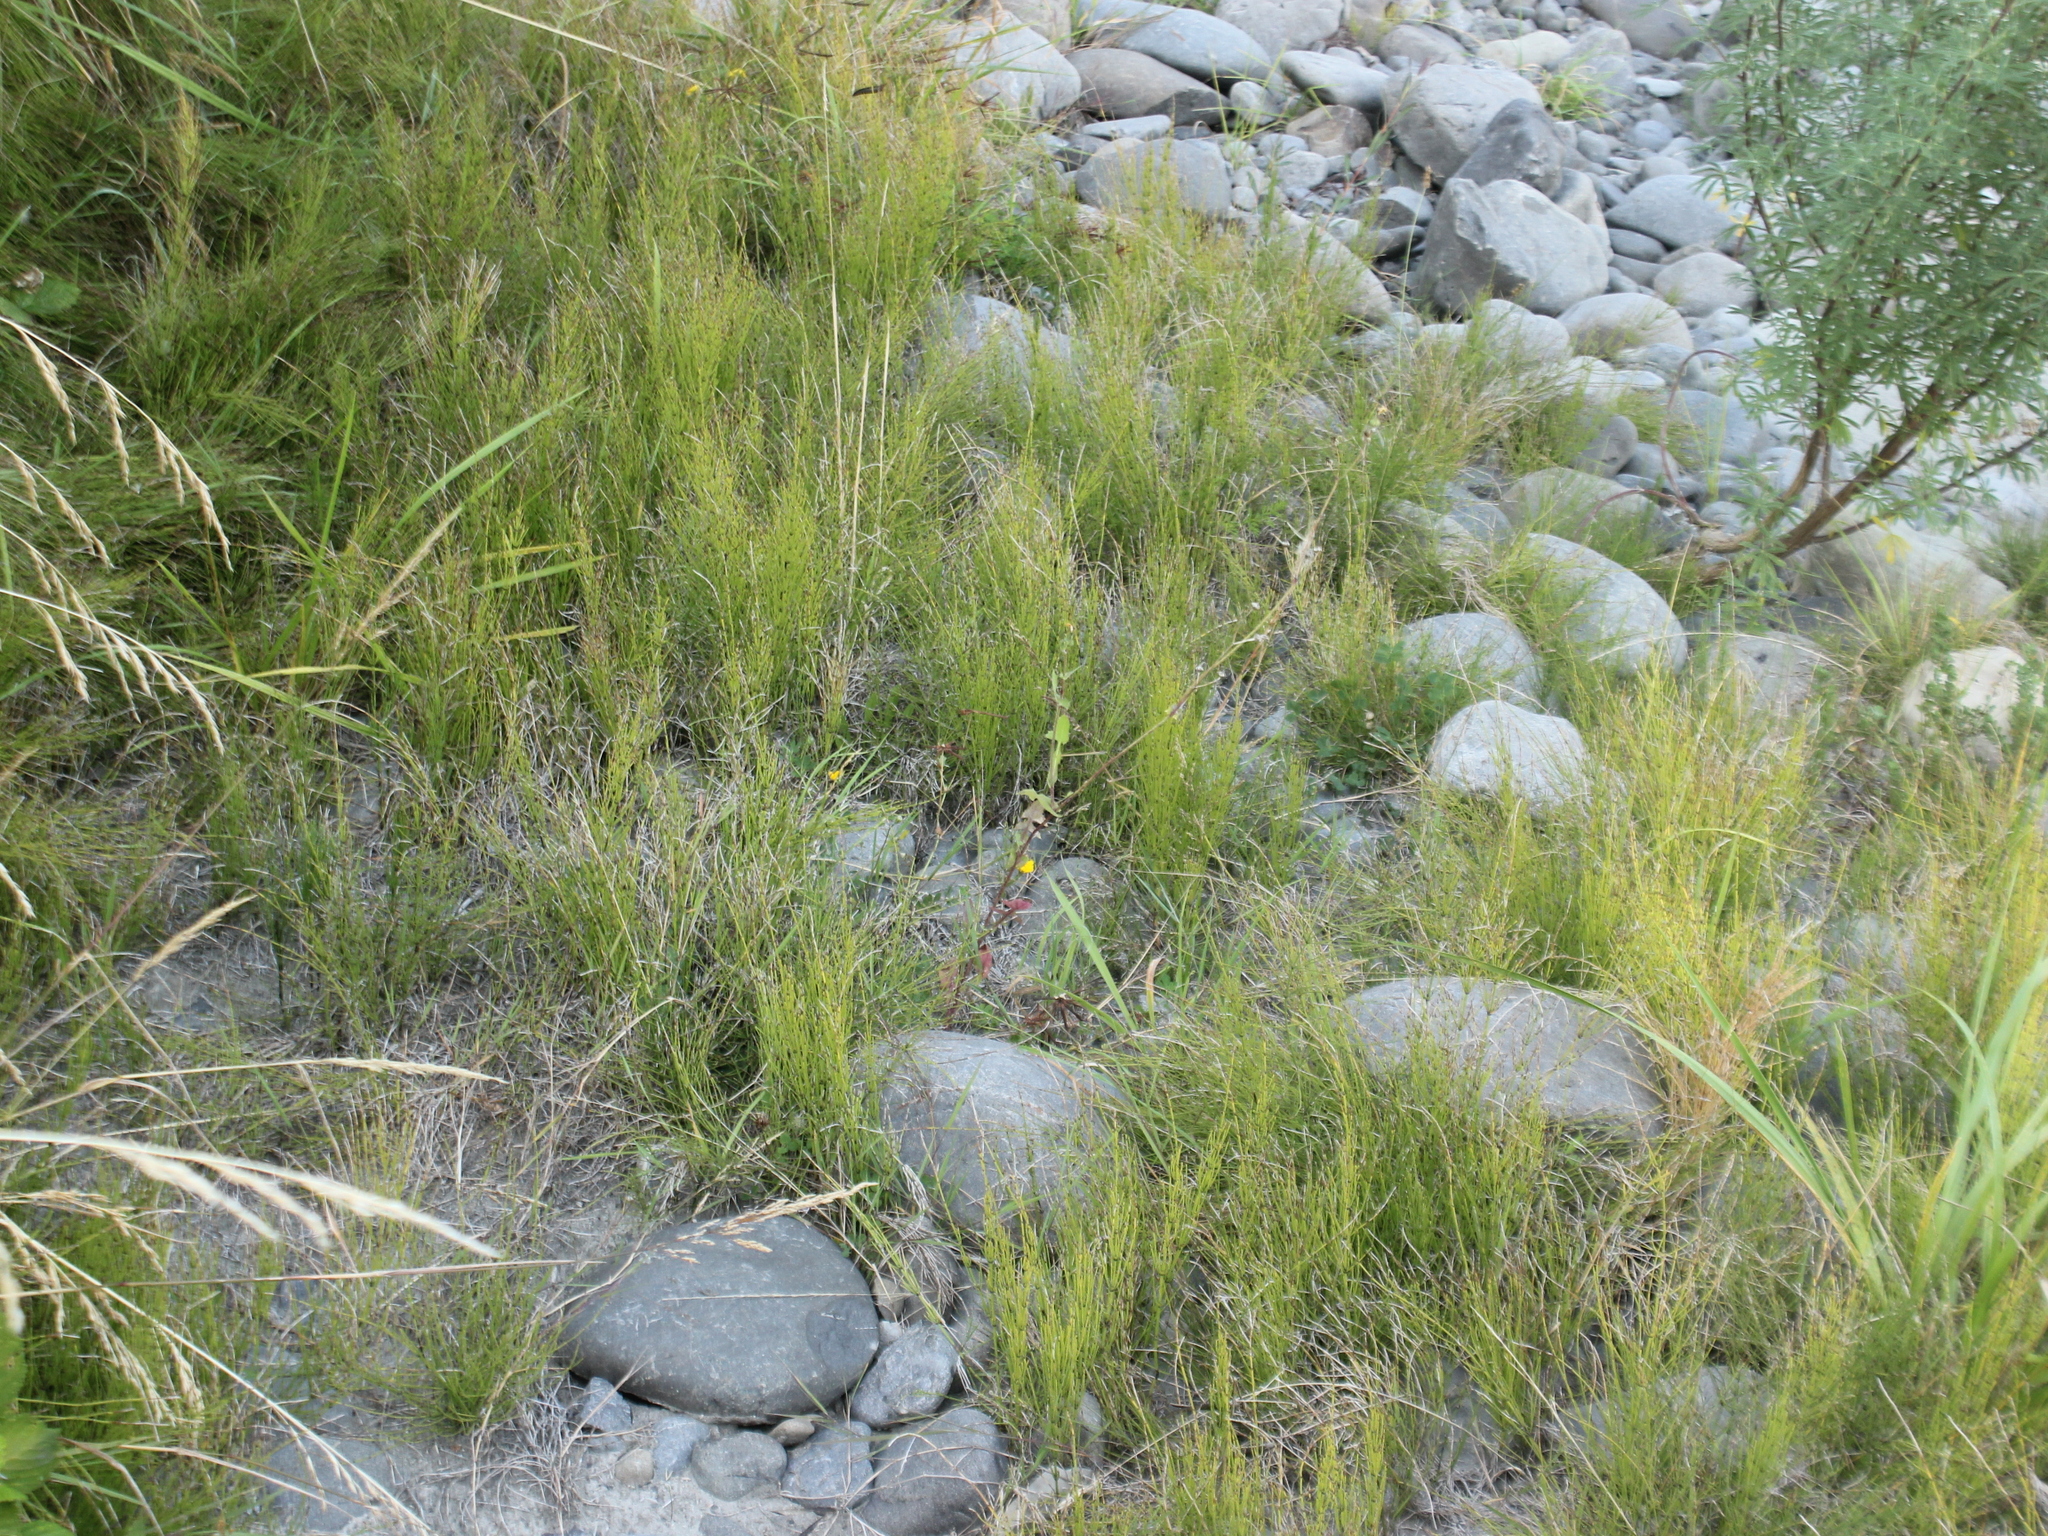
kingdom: Plantae
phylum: Tracheophyta
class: Polypodiopsida
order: Equisetales
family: Equisetaceae
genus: Equisetum
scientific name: Equisetum arvense
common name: Field horsetail
